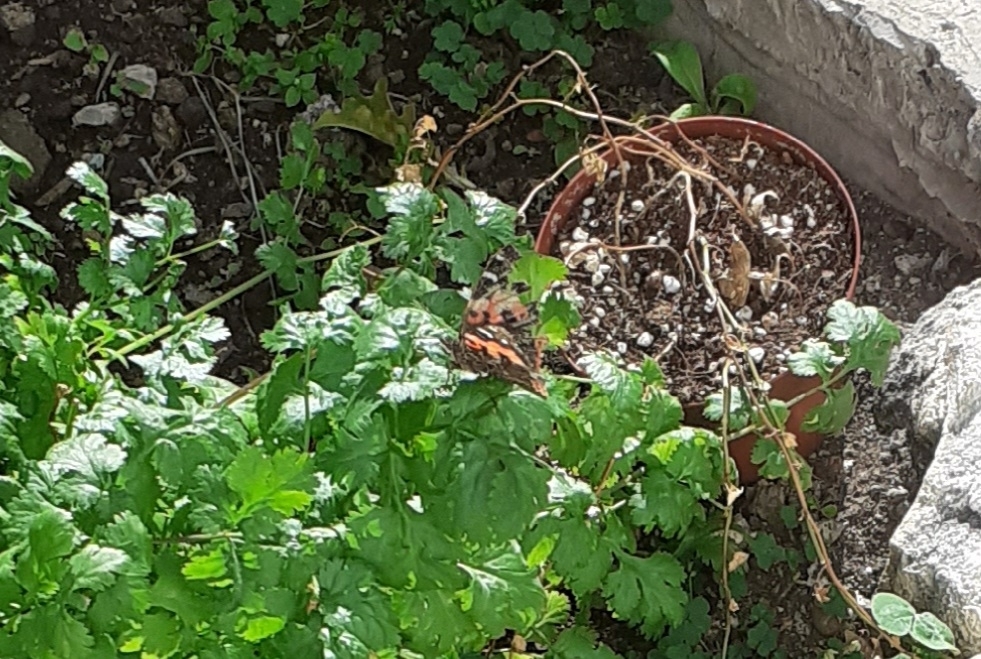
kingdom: Animalia
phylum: Arthropoda
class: Insecta
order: Lepidoptera
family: Nymphalidae
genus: Vanessa
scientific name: Vanessa vulcania
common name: Canary red admiral
